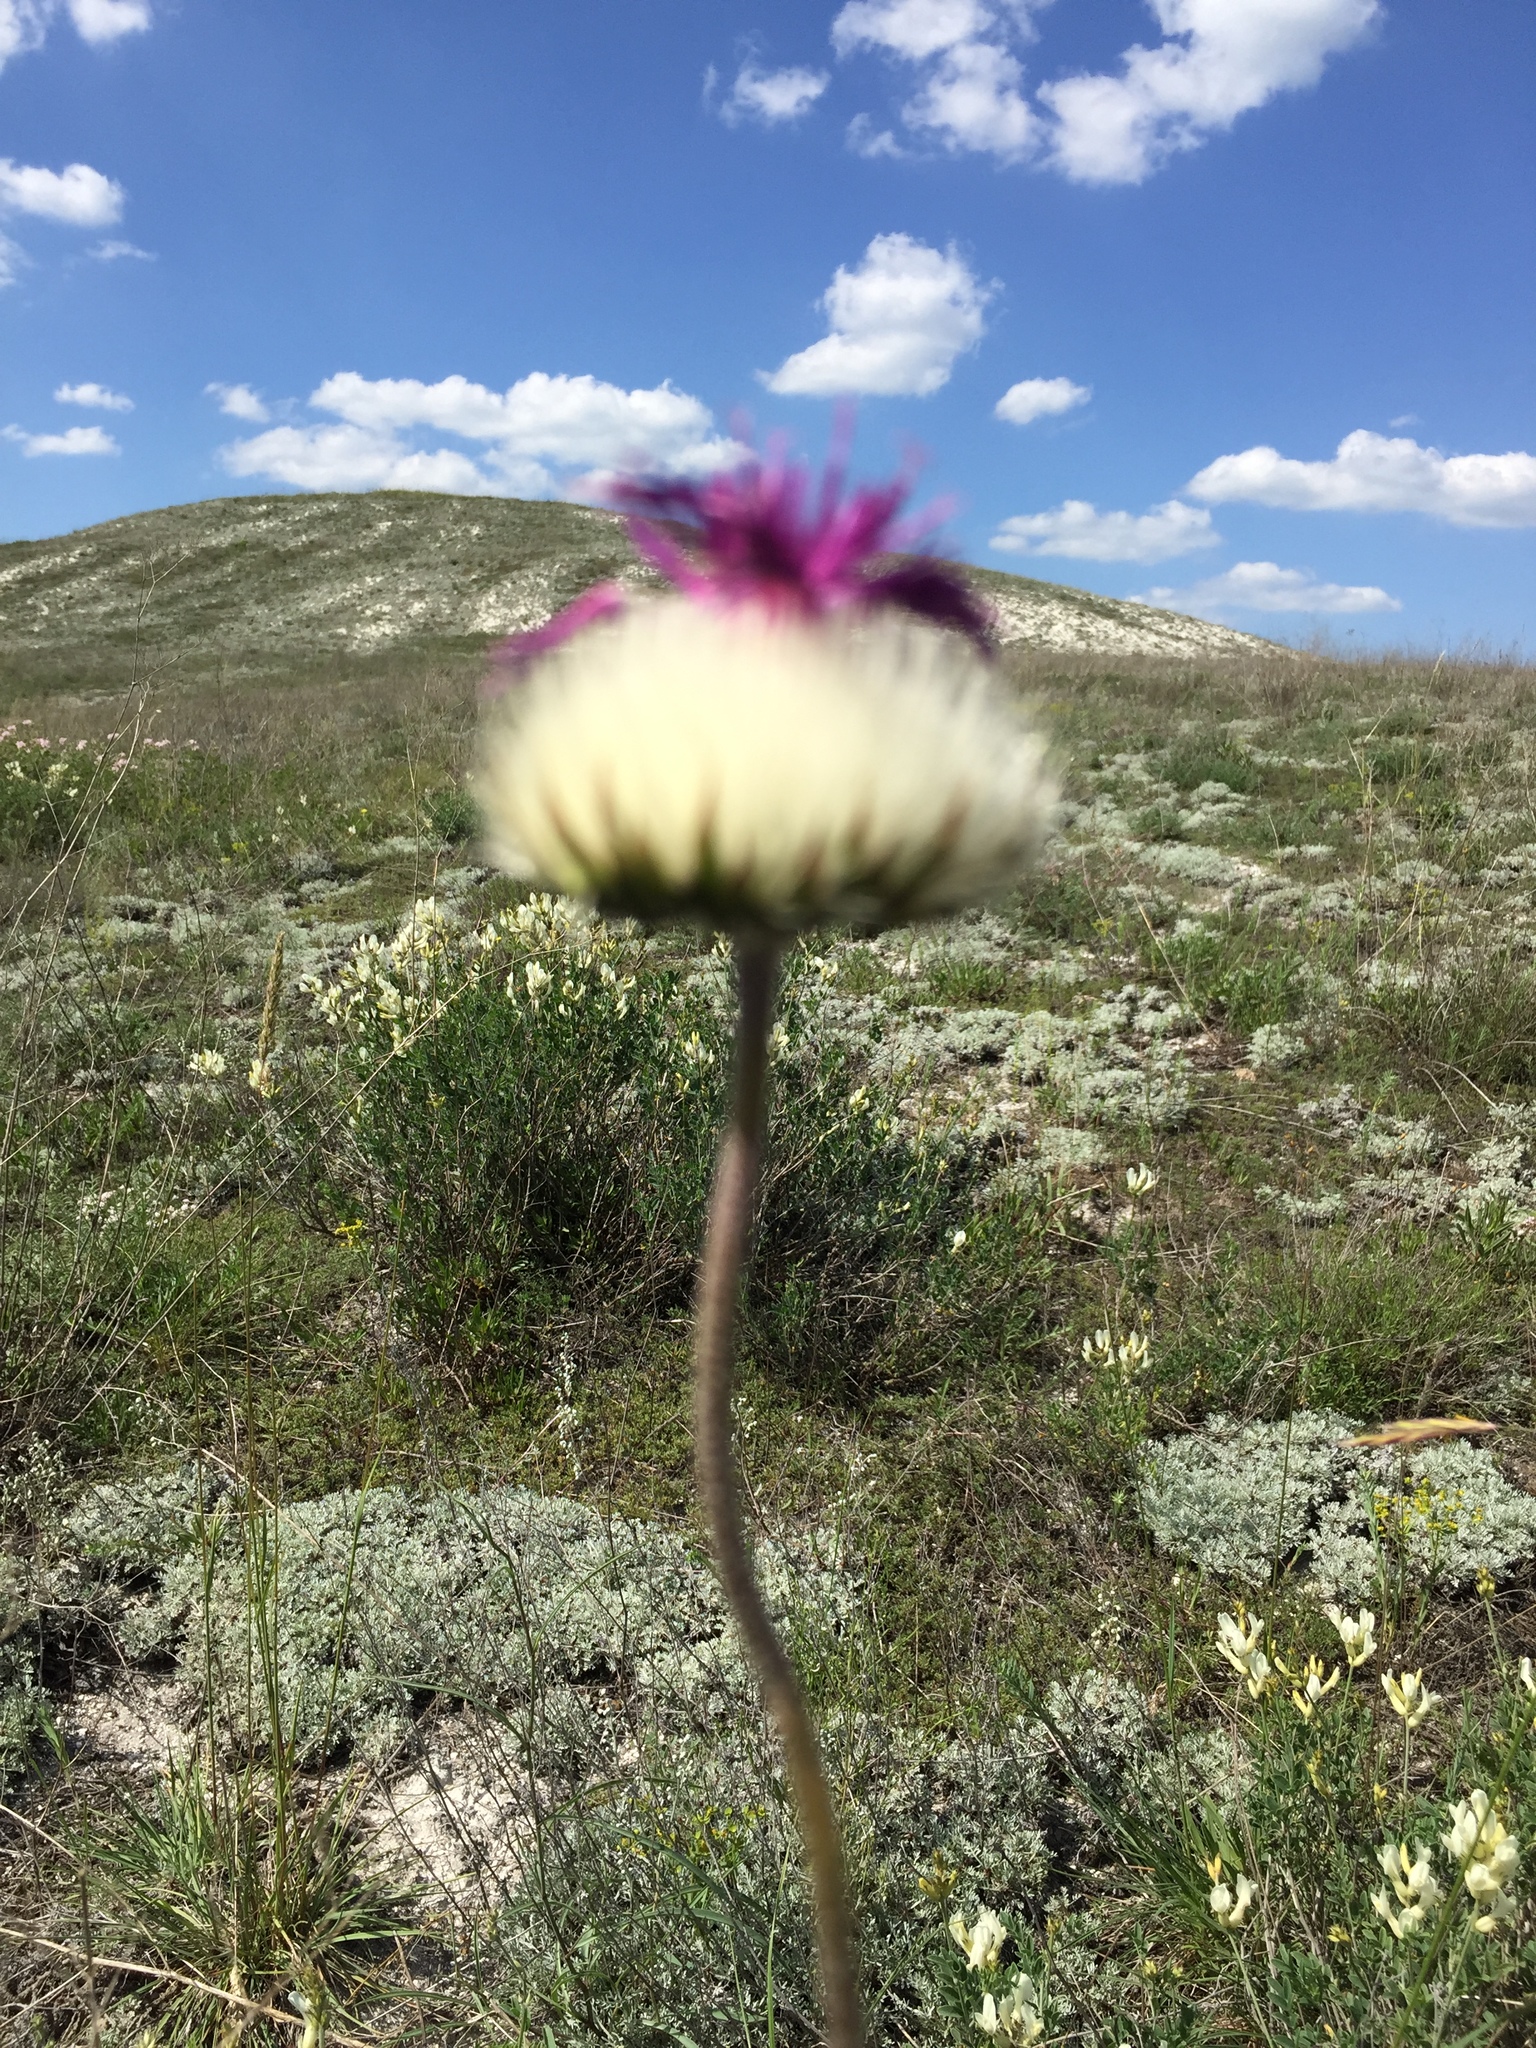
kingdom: Plantae
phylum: Tracheophyta
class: Magnoliopsida
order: Asterales
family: Asteraceae
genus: Jurinea
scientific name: Jurinea ledebourii
